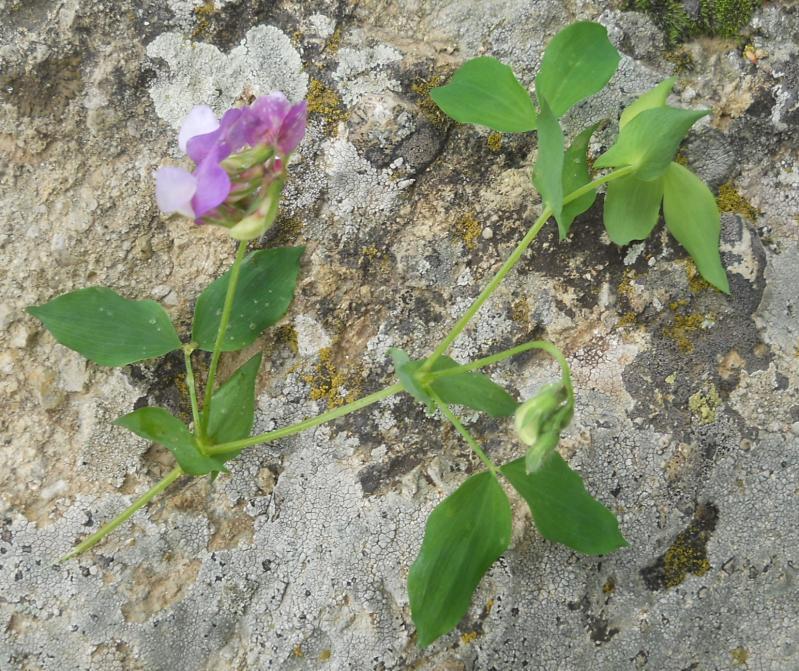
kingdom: Plantae
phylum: Tracheophyta
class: Magnoliopsida
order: Fabales
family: Fabaceae
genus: Lathyrus
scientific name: Lathyrus laxiflorus
